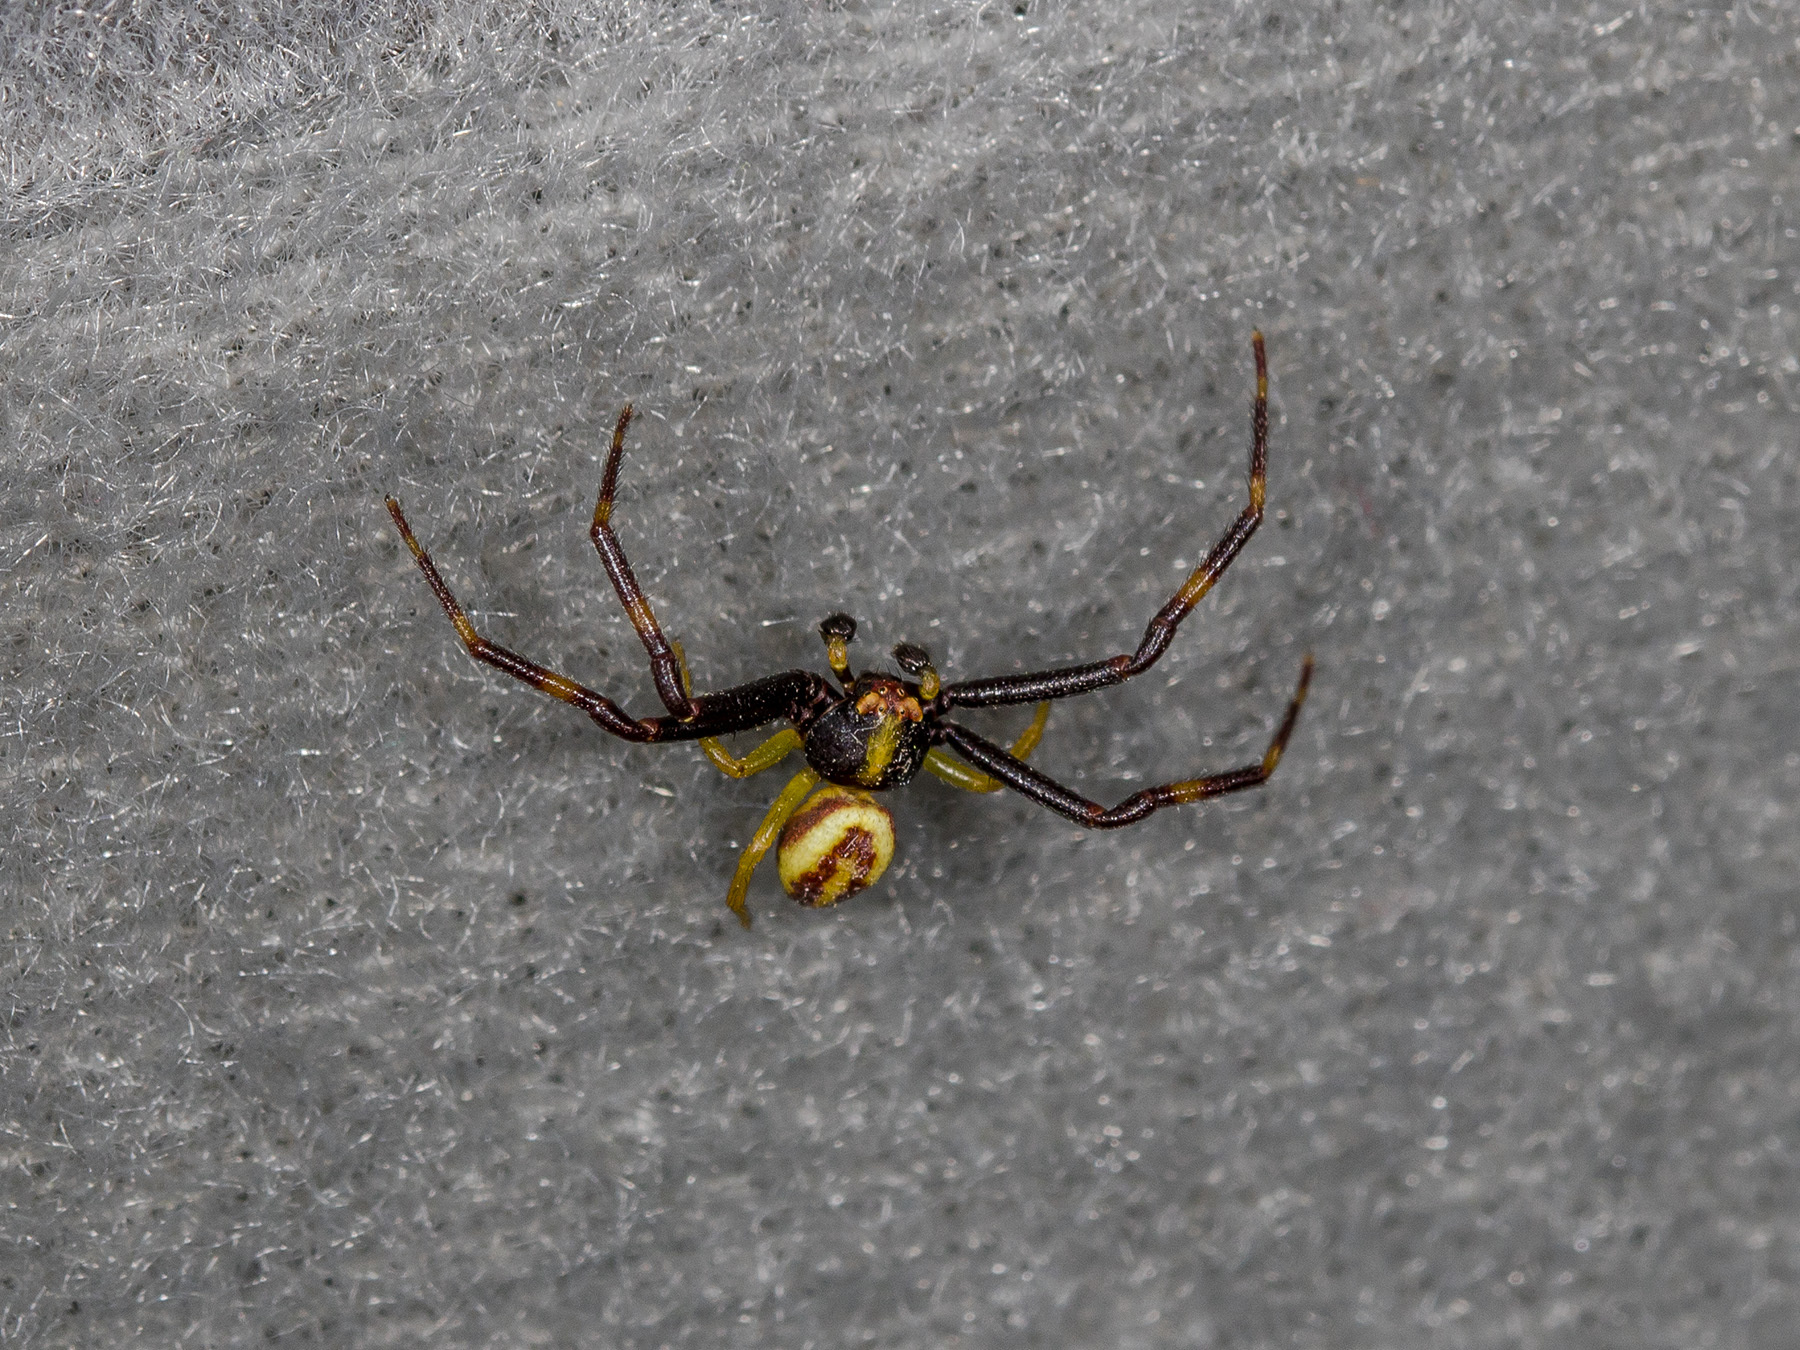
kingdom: Animalia
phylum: Arthropoda
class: Arachnida
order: Araneae
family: Thomisidae
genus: Misumena
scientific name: Misumena vatia
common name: Goldenrod crab spider
